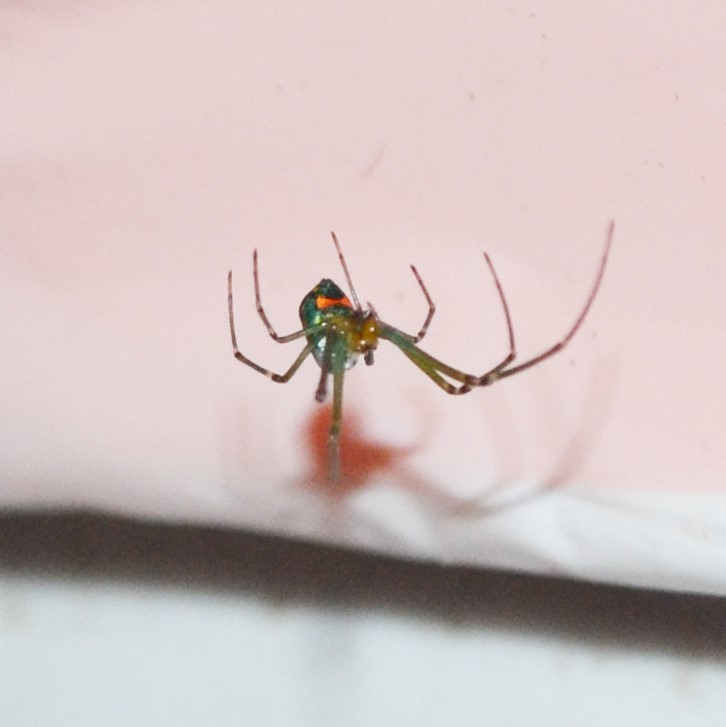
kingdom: Animalia
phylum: Arthropoda
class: Arachnida
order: Araneae
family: Tetragnathidae
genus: Leucauge
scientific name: Leucauge argyrobapta
